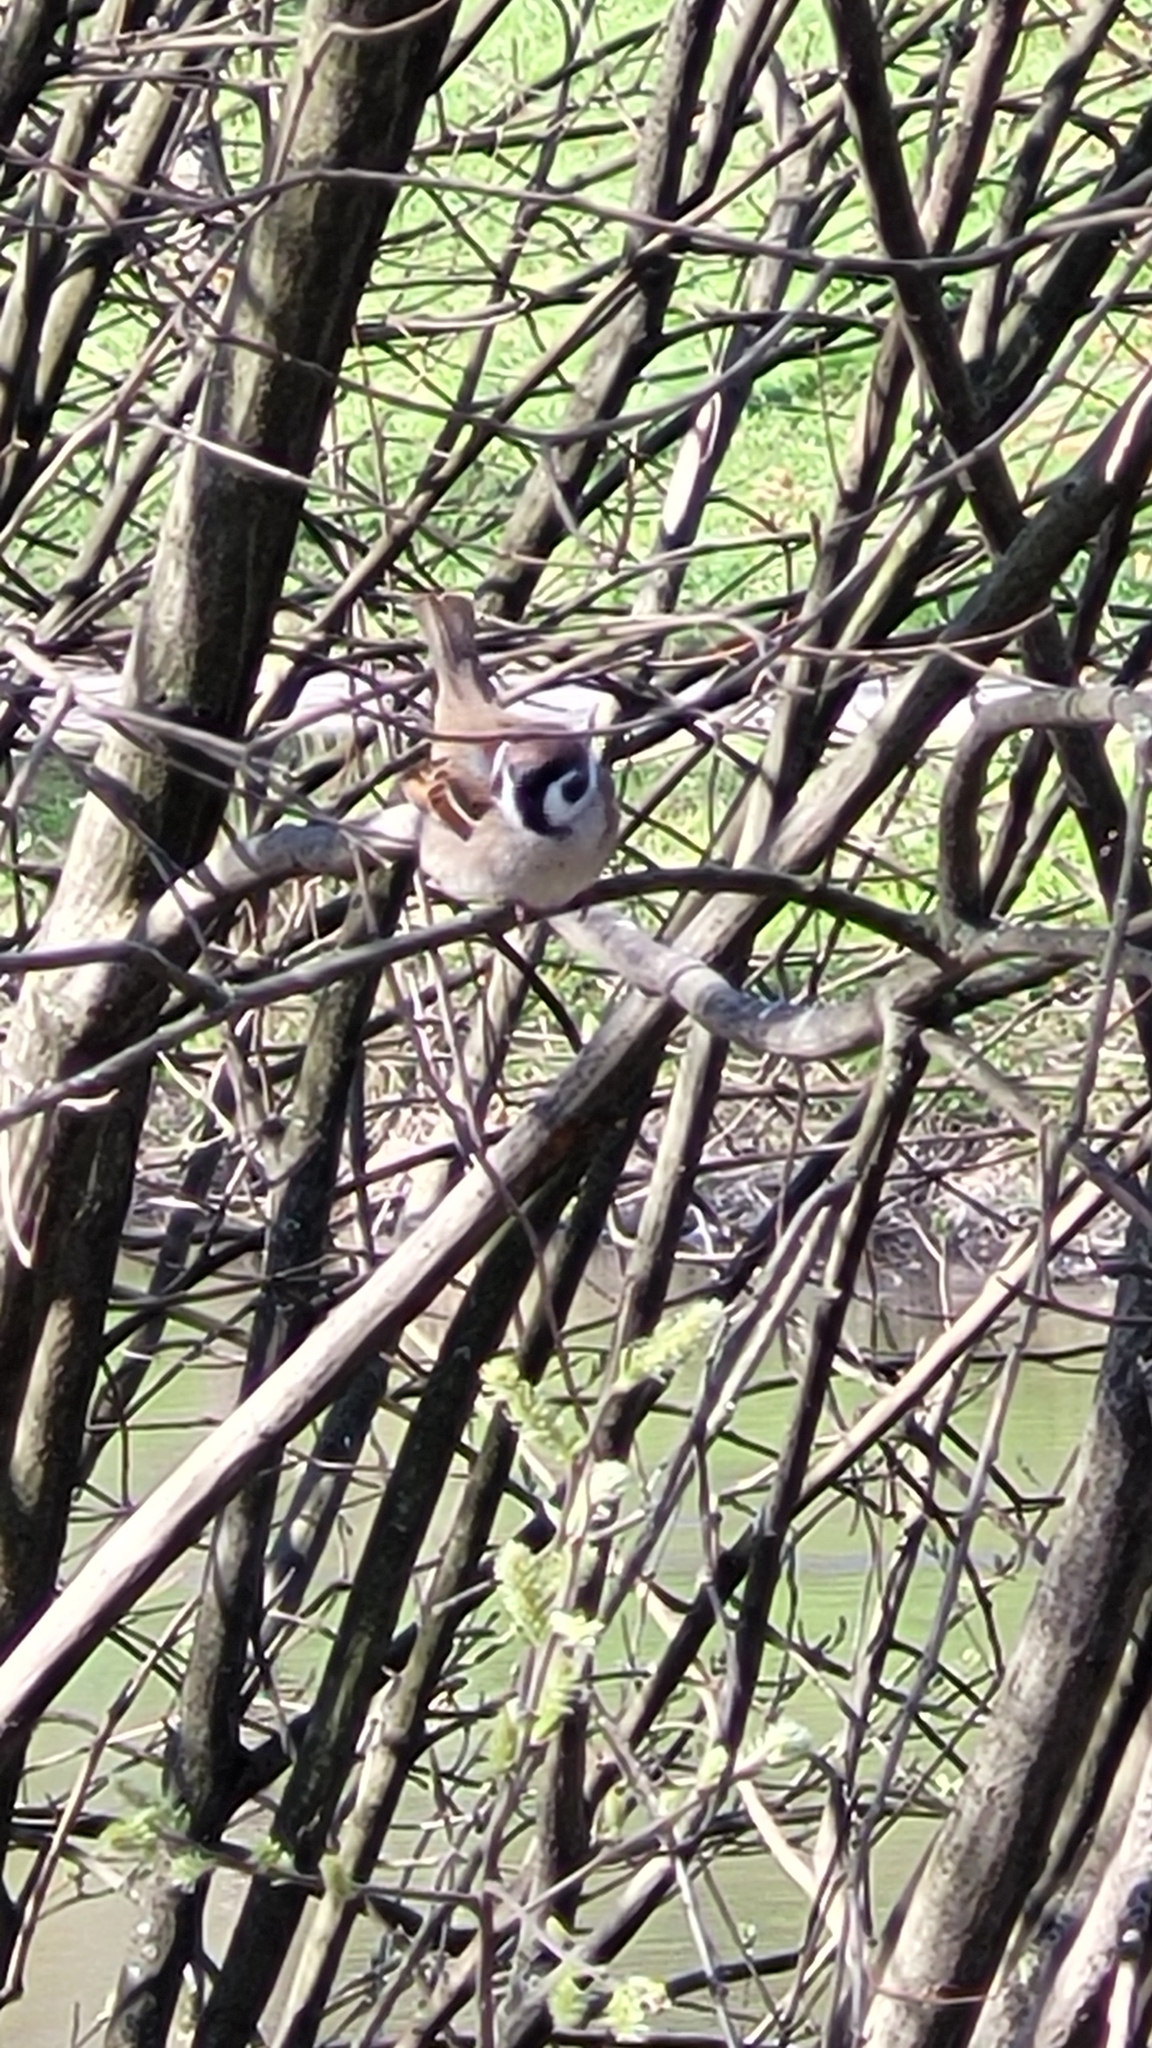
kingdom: Animalia
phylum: Chordata
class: Aves
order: Passeriformes
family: Passeridae
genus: Passer
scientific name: Passer montanus
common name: Eurasian tree sparrow
